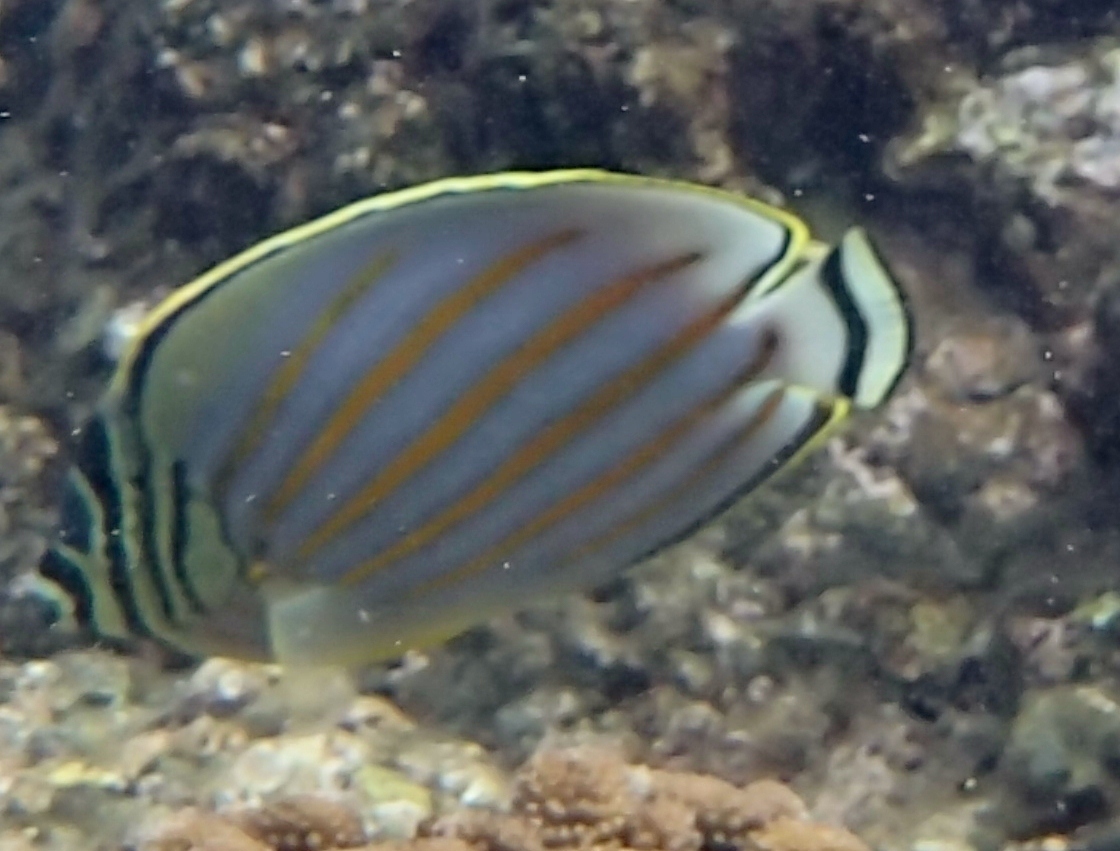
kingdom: Animalia
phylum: Chordata
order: Perciformes
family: Chaetodontidae
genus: Chaetodon
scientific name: Chaetodon ornatissimus
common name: Ornate butterflyfish
